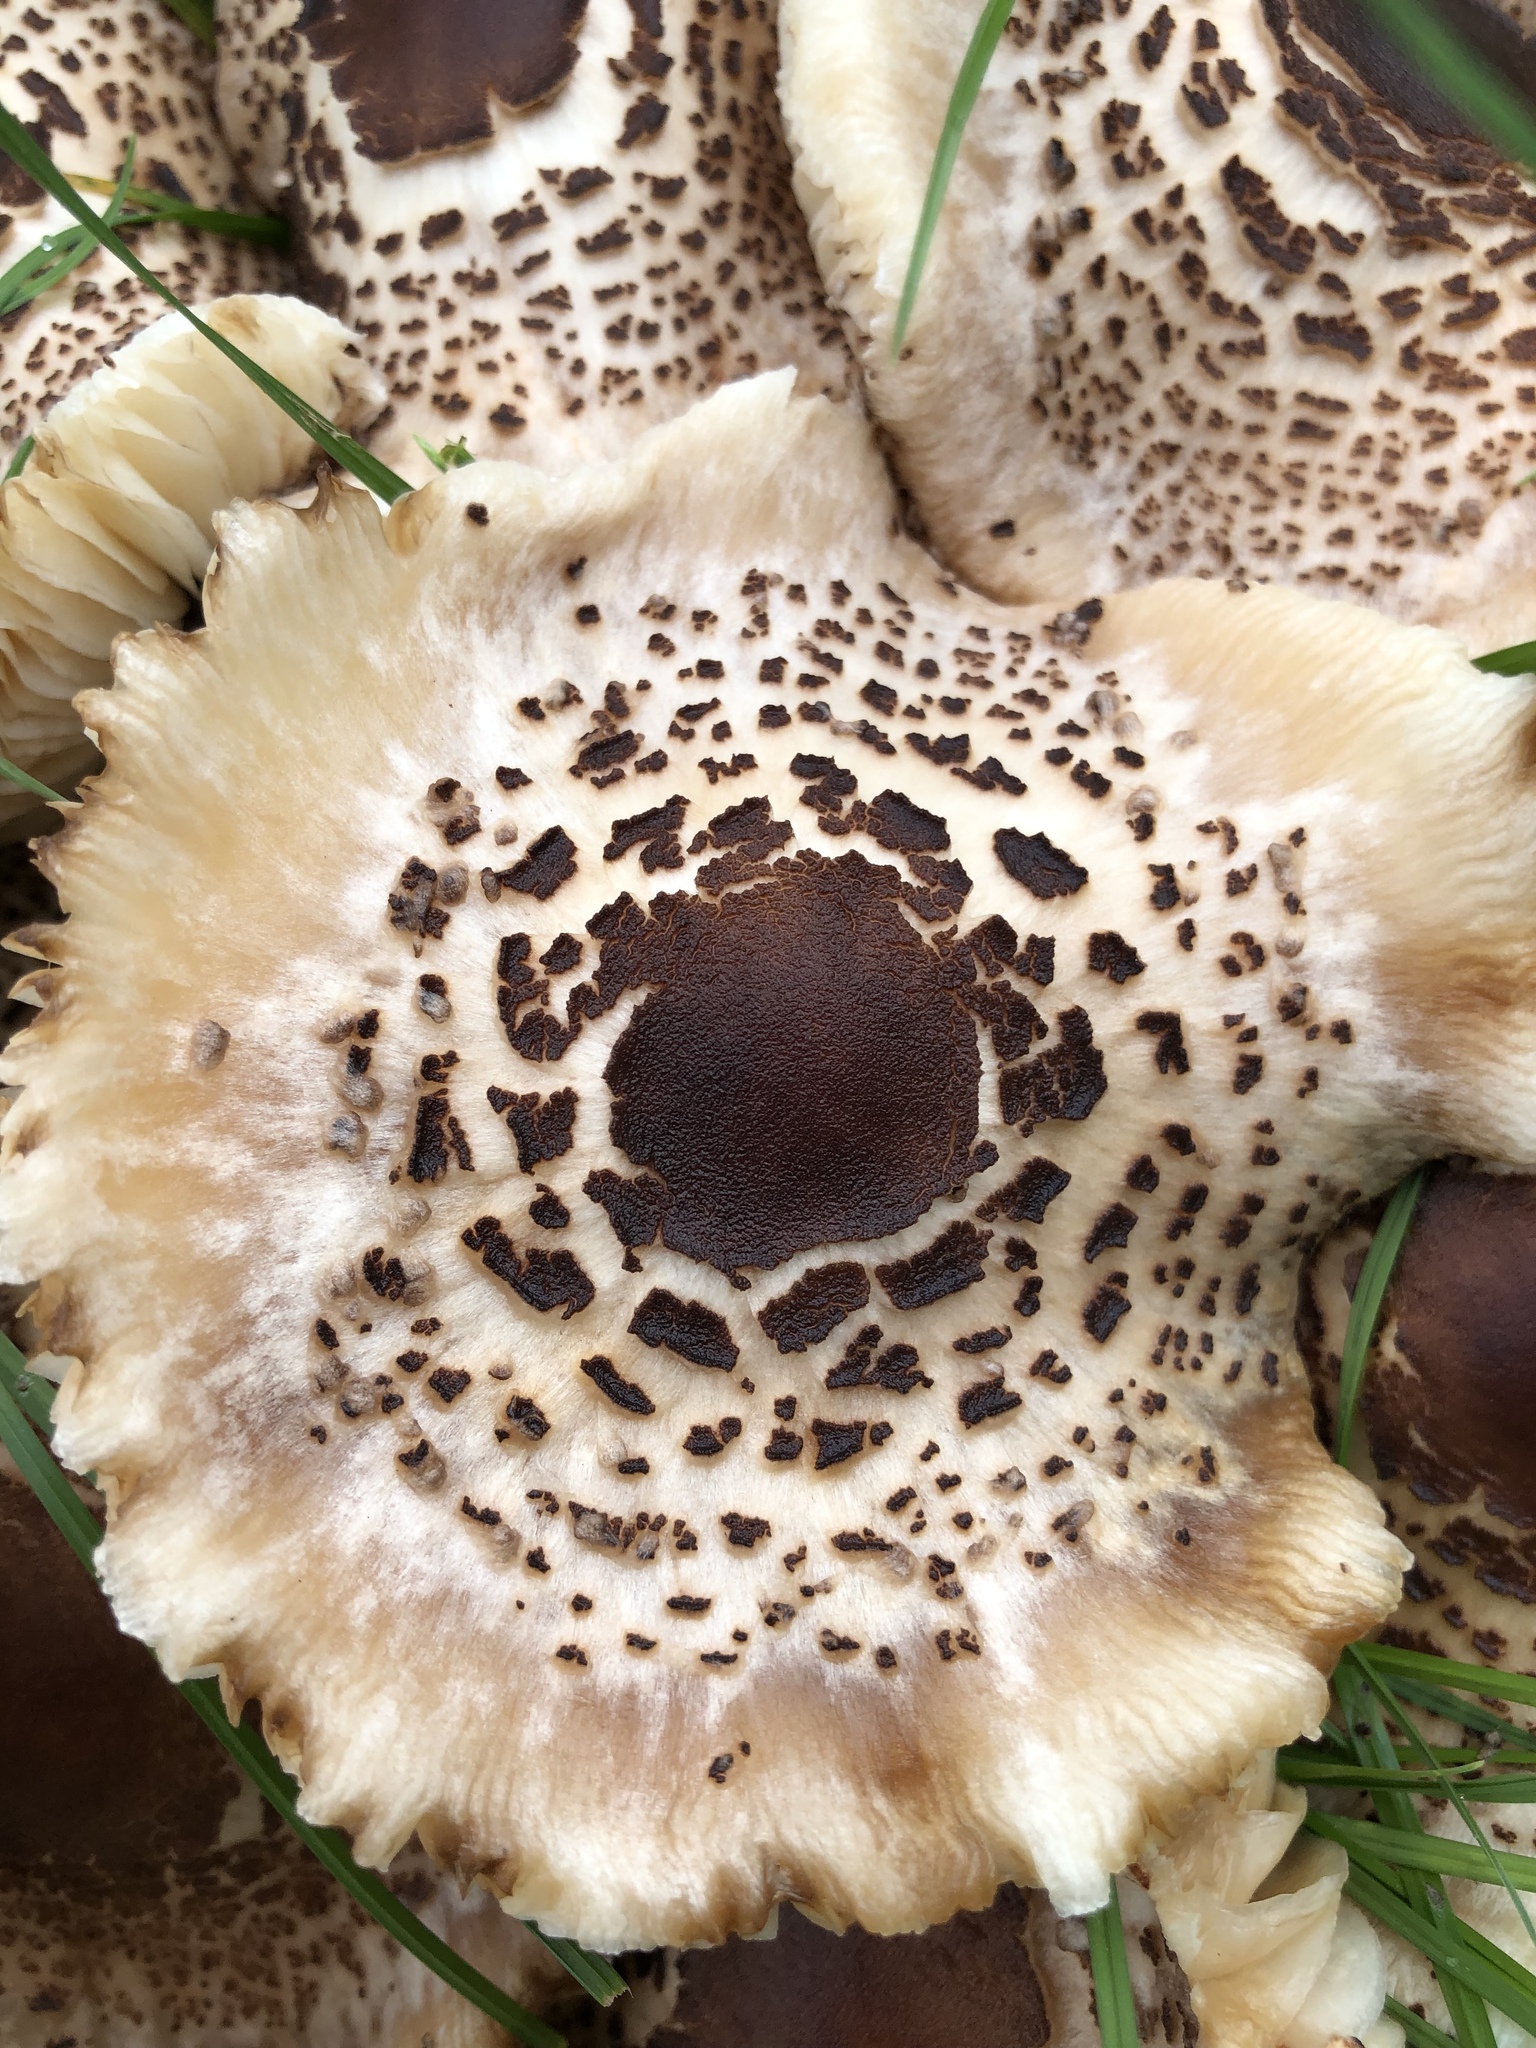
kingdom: Fungi
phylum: Basidiomycota
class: Agaricomycetes
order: Agaricales
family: Agaricaceae
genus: Leucoagaricus
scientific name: Leucoagaricus americanus
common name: Reddening lepiota
